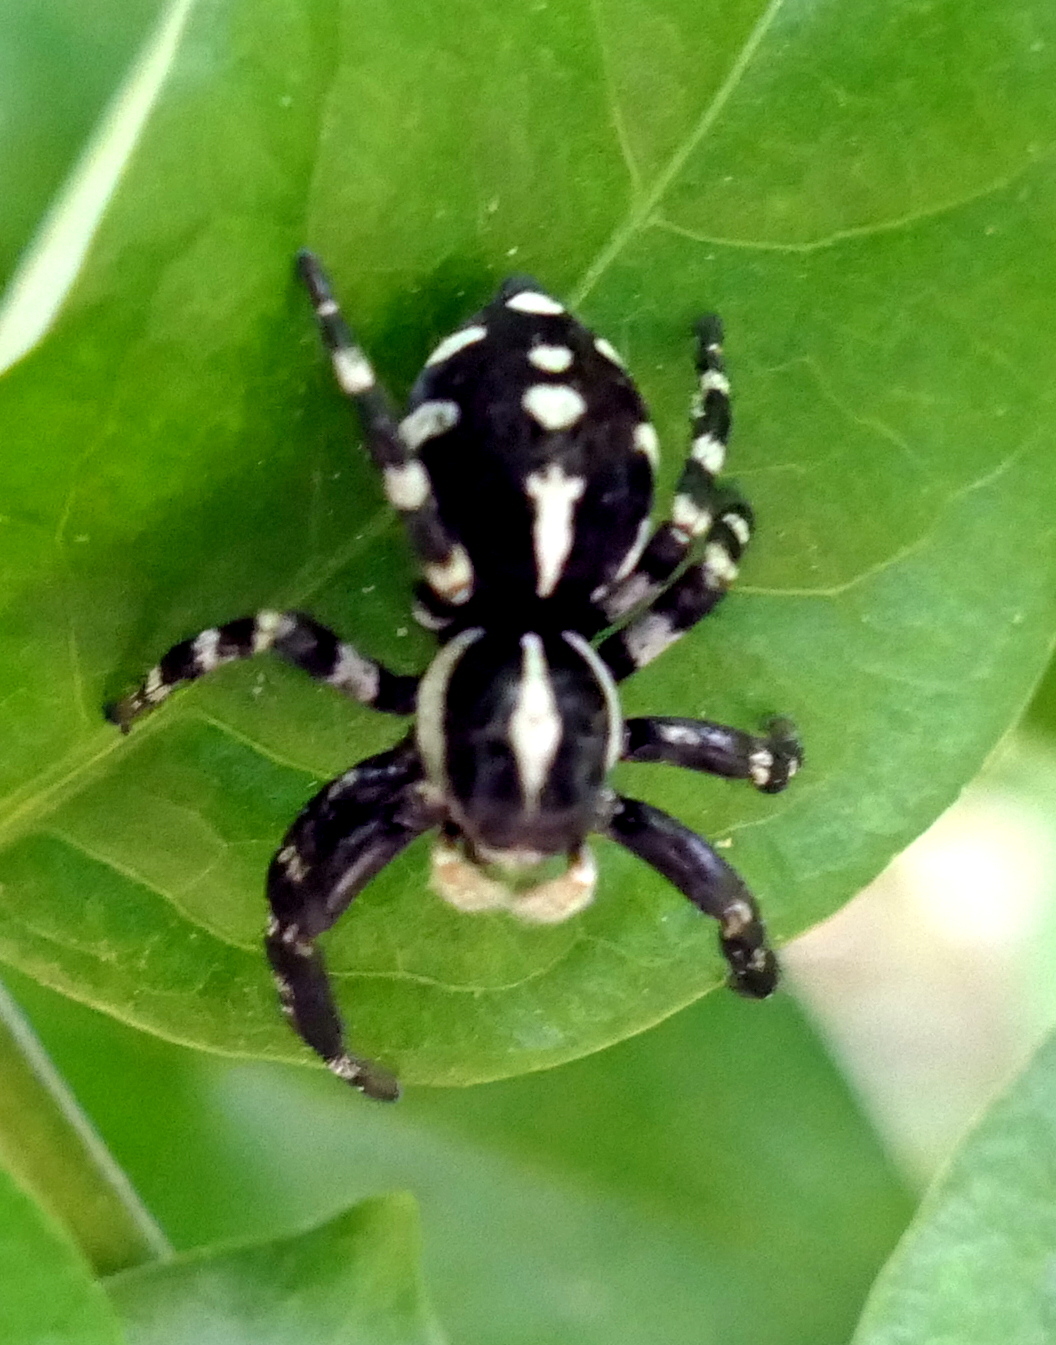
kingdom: Animalia
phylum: Arthropoda
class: Arachnida
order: Araneae
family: Salticidae
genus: Phiale
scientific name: Phiale guttata
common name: Jumping spiders
